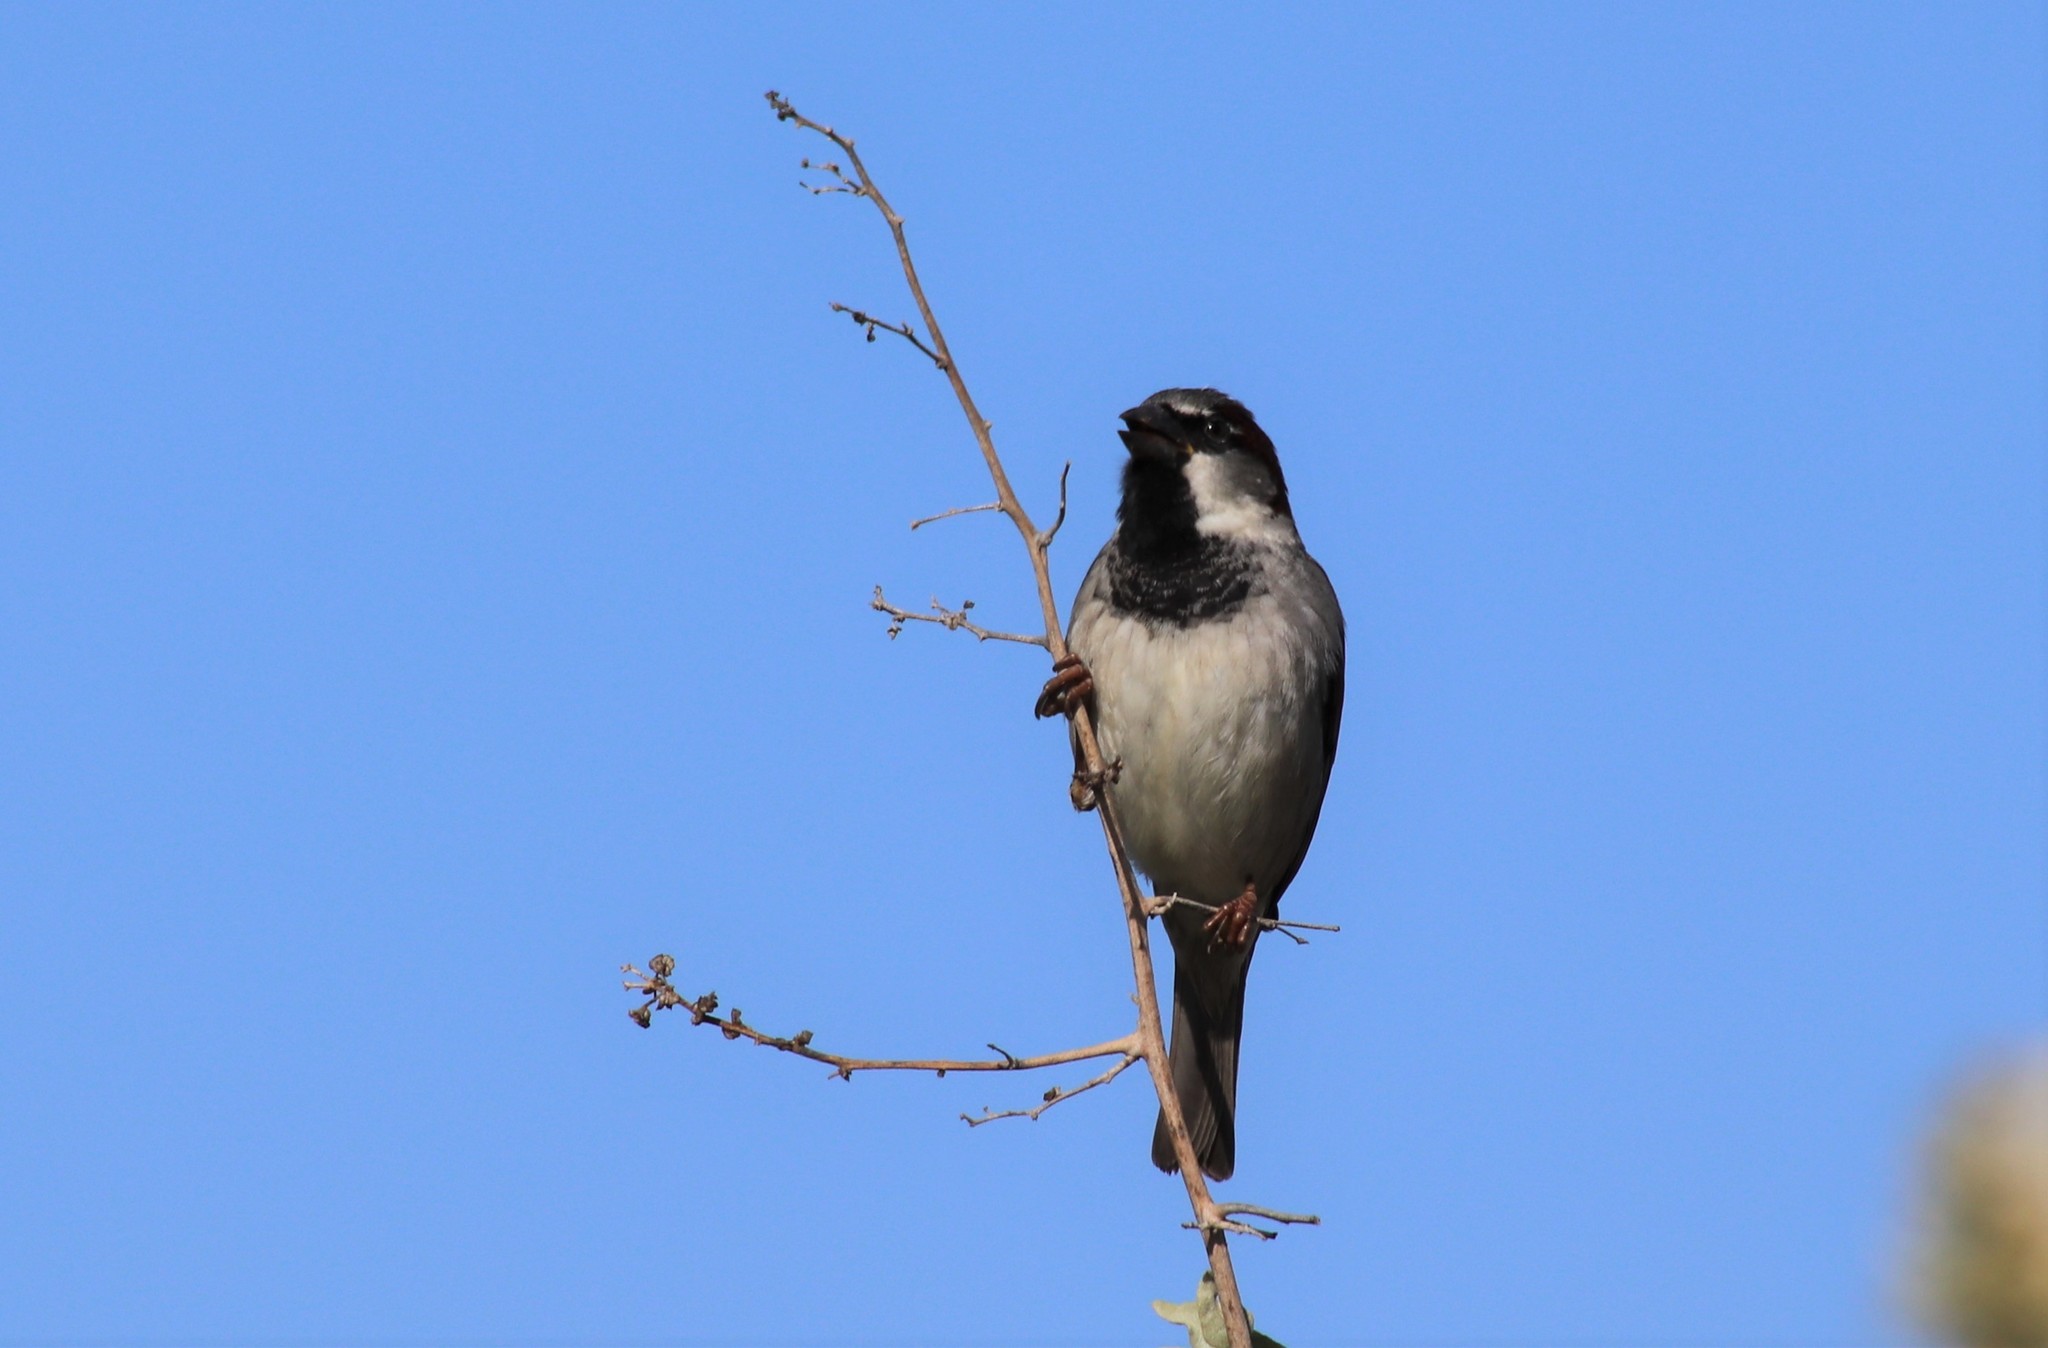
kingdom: Animalia
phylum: Chordata
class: Aves
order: Passeriformes
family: Passeridae
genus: Passer
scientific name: Passer domesticus
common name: House sparrow
